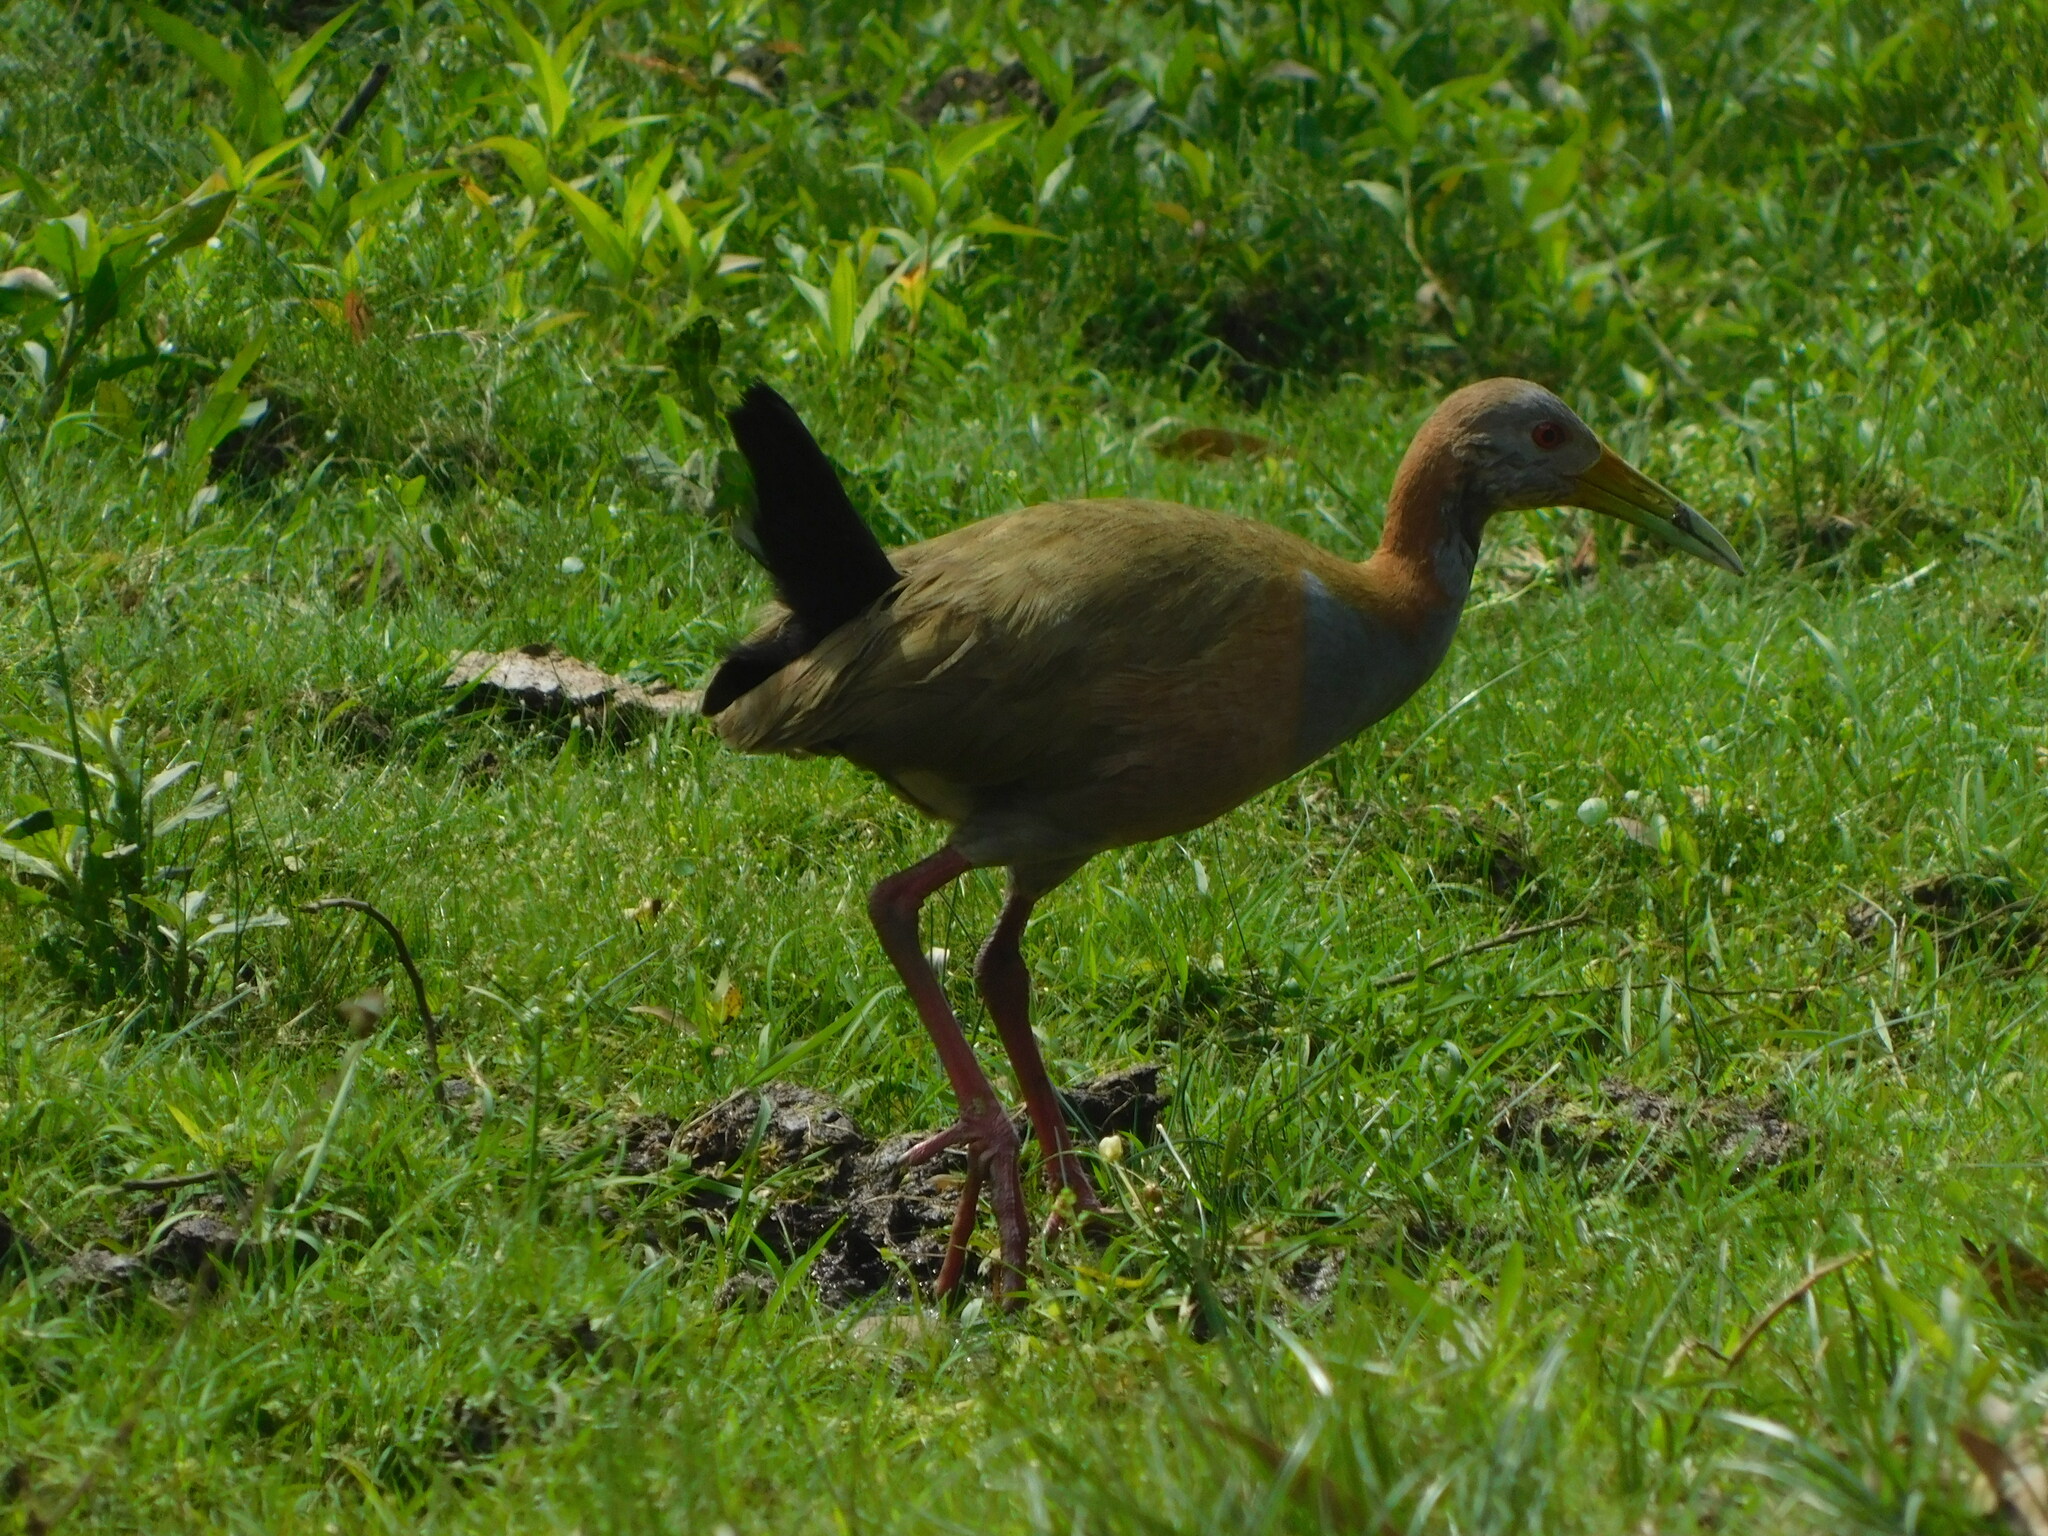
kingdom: Animalia
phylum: Chordata
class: Aves
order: Gruiformes
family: Rallidae
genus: Aramides
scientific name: Aramides ypecaha
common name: Giant wood rail
